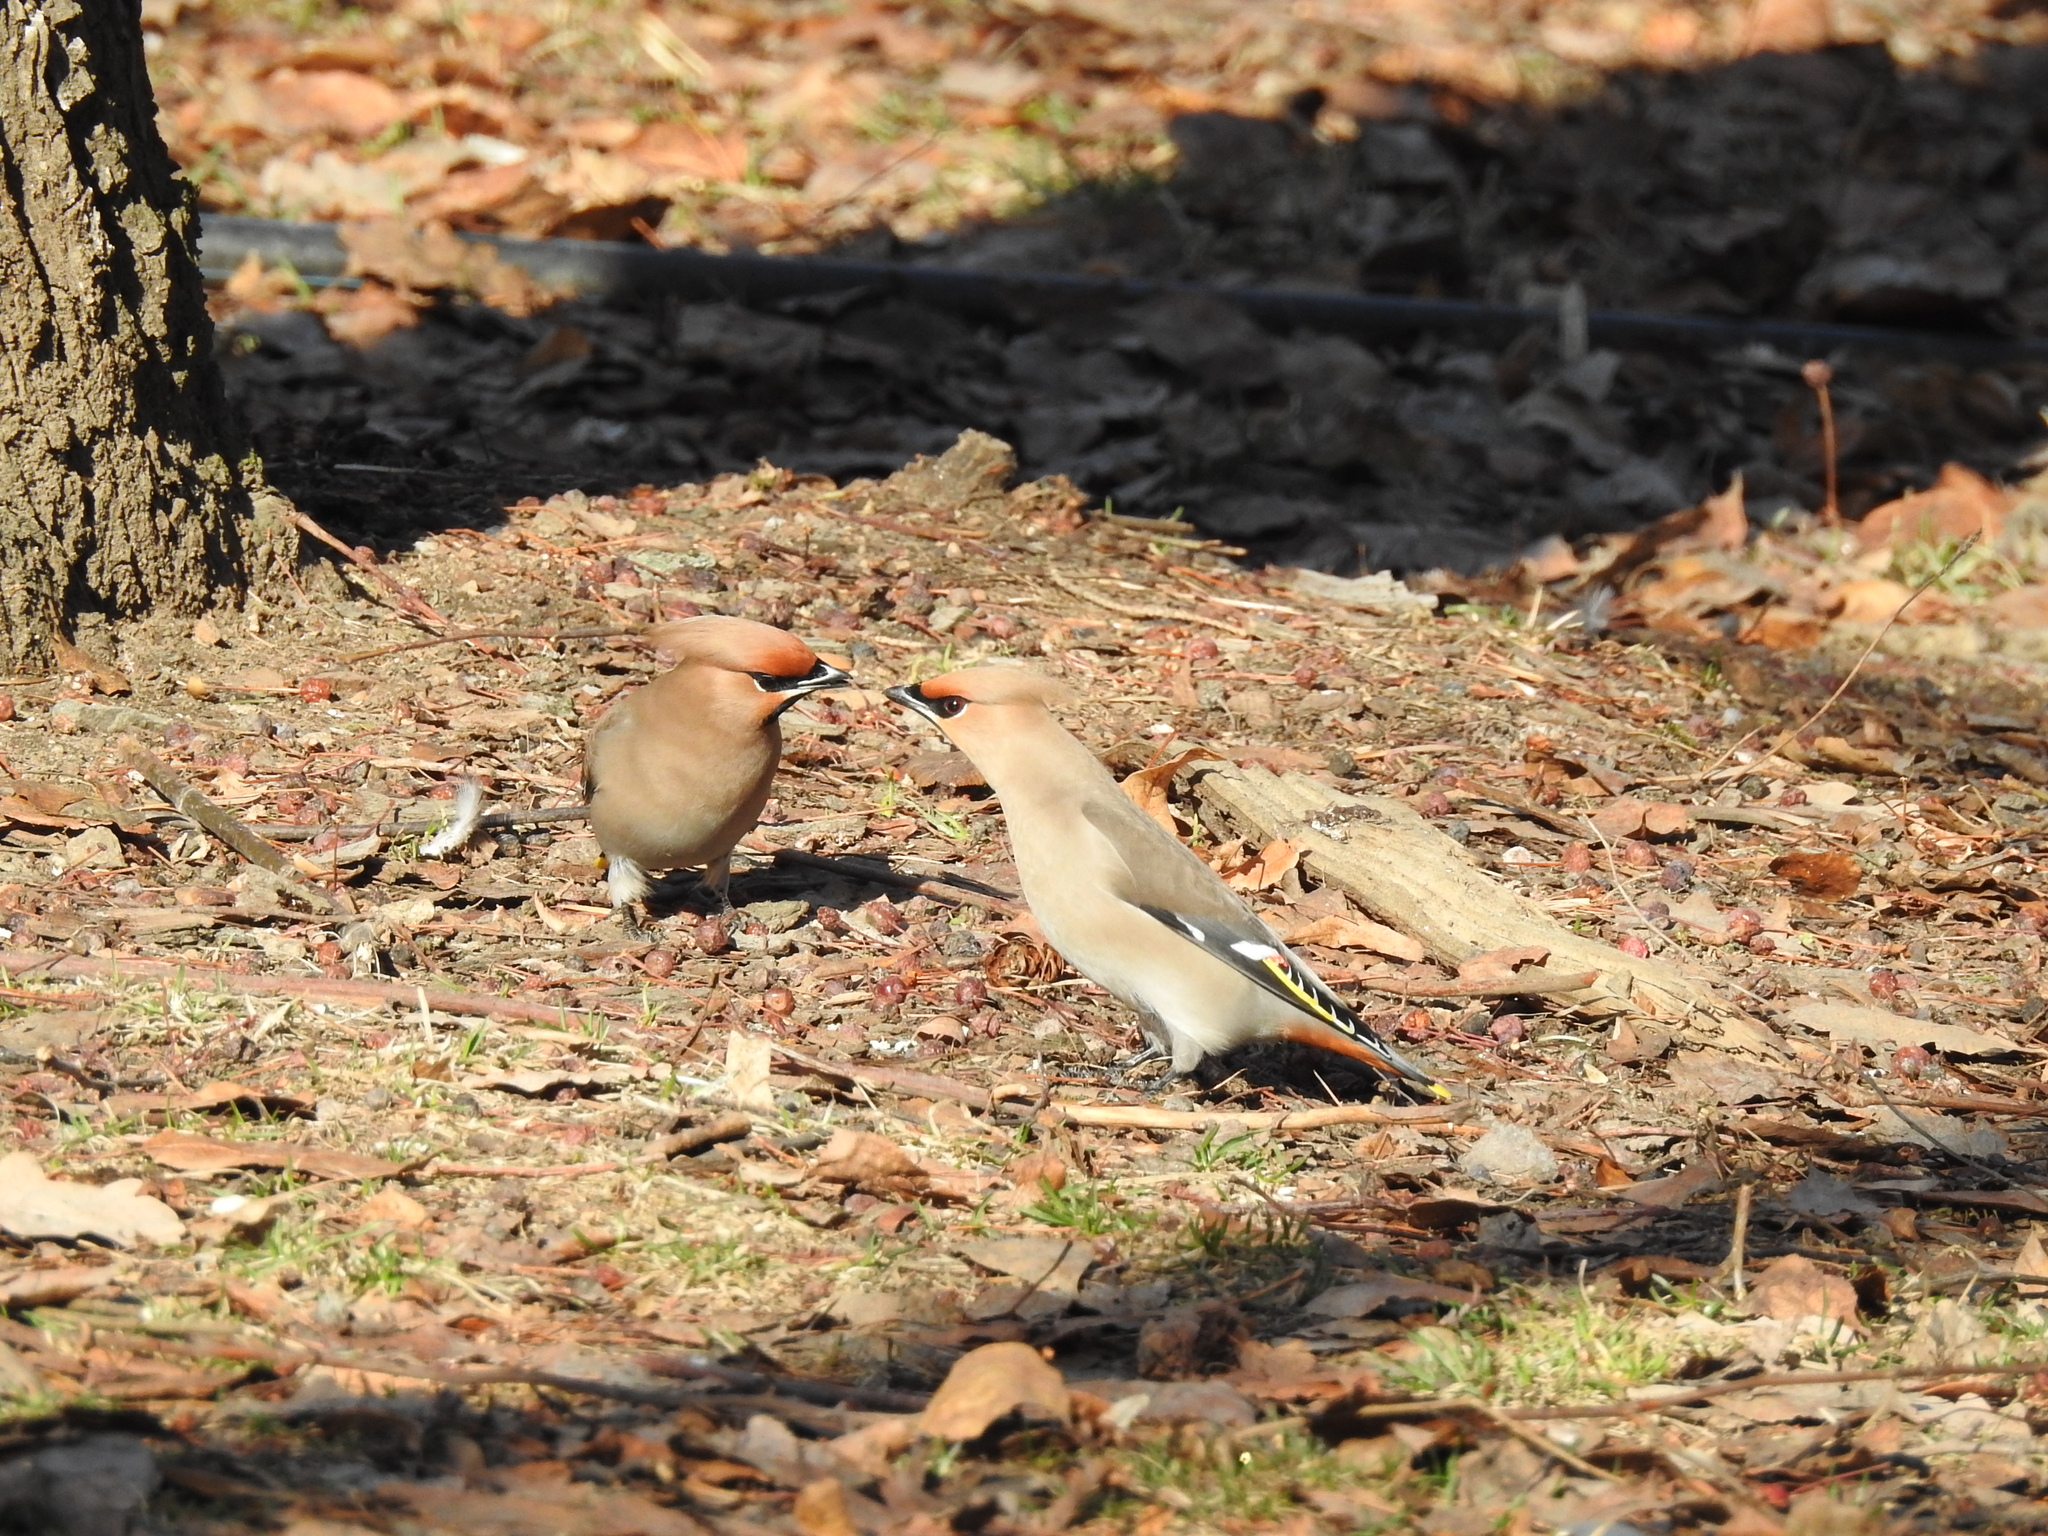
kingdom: Animalia
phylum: Chordata
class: Aves
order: Passeriformes
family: Bombycillidae
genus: Bombycilla
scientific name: Bombycilla garrulus
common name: Bohemian waxwing
